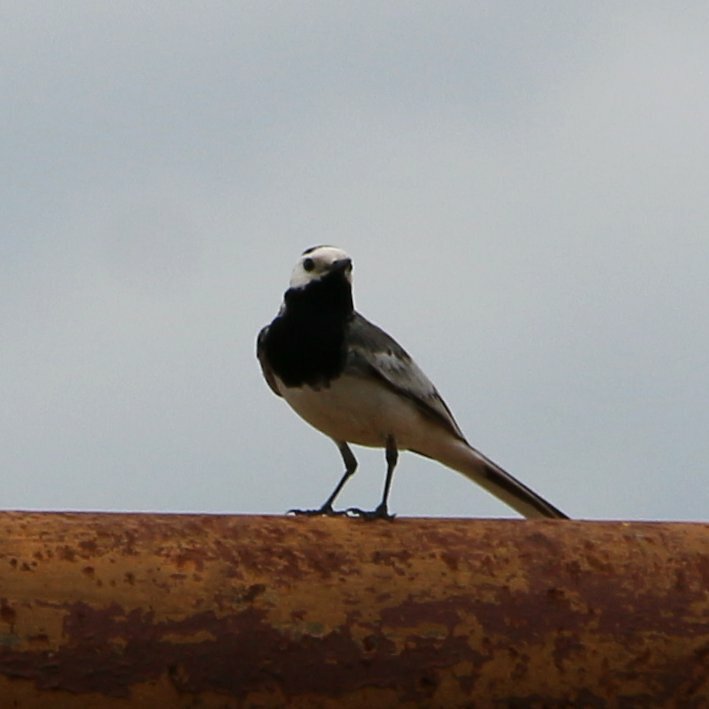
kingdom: Animalia
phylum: Chordata
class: Aves
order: Passeriformes
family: Motacillidae
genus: Motacilla
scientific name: Motacilla alba
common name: White wagtail
